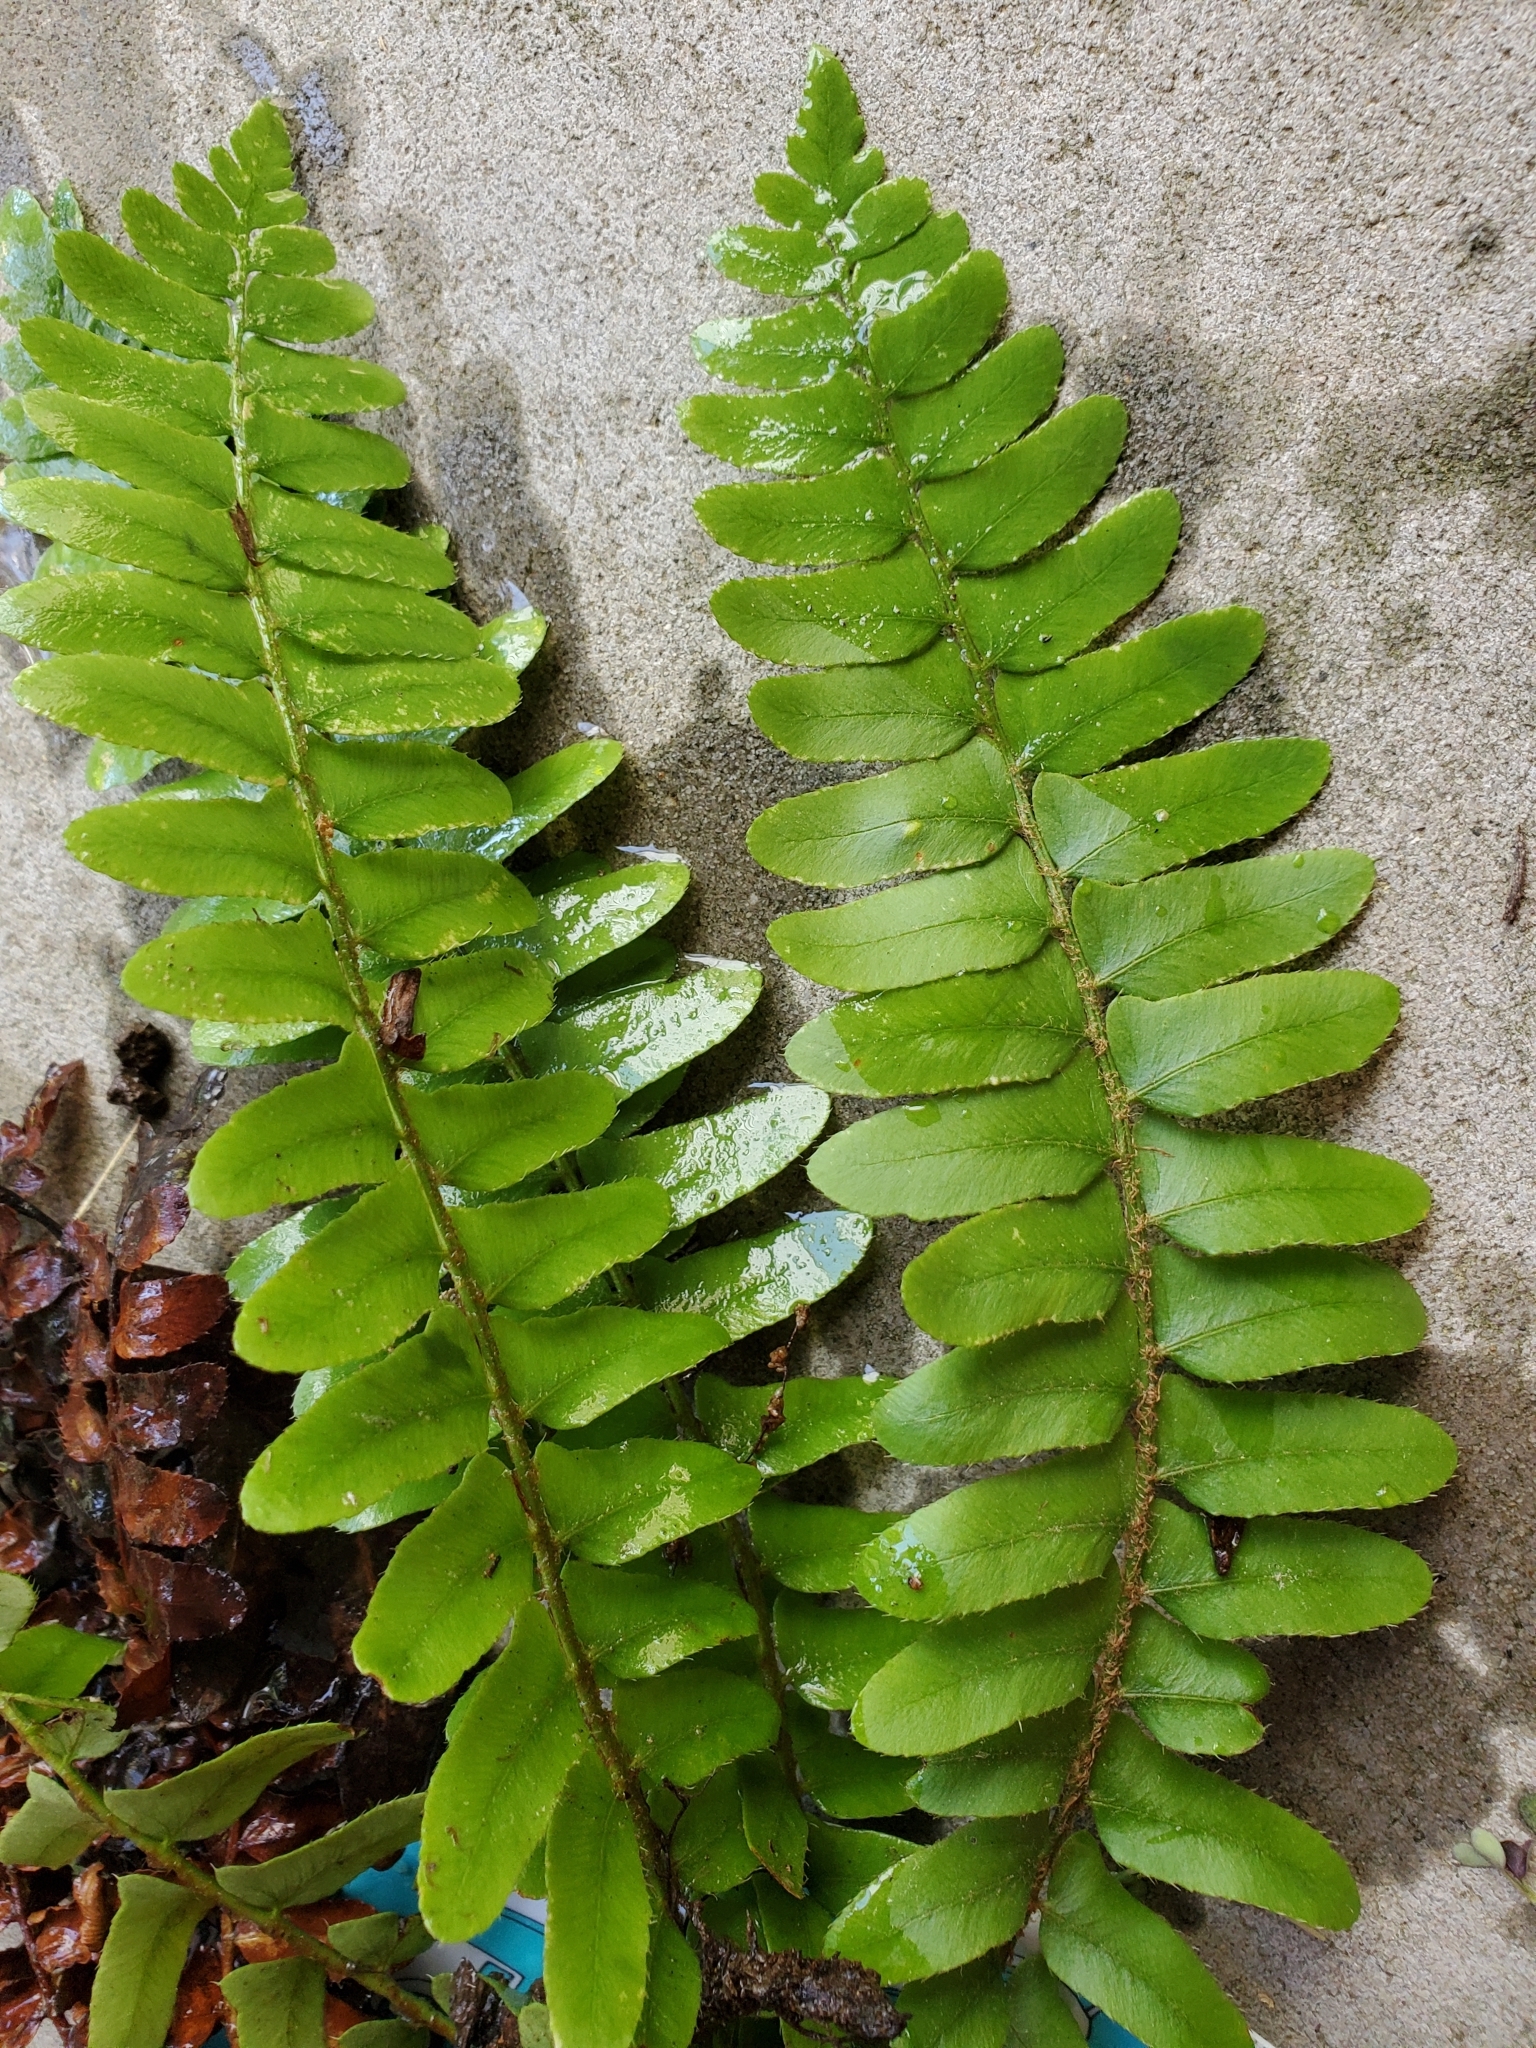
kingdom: Plantae
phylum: Tracheophyta
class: Polypodiopsida
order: Polypodiales
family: Dryopteridaceae
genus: Polystichum
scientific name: Polystichum acrostichoides
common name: Christmas fern
